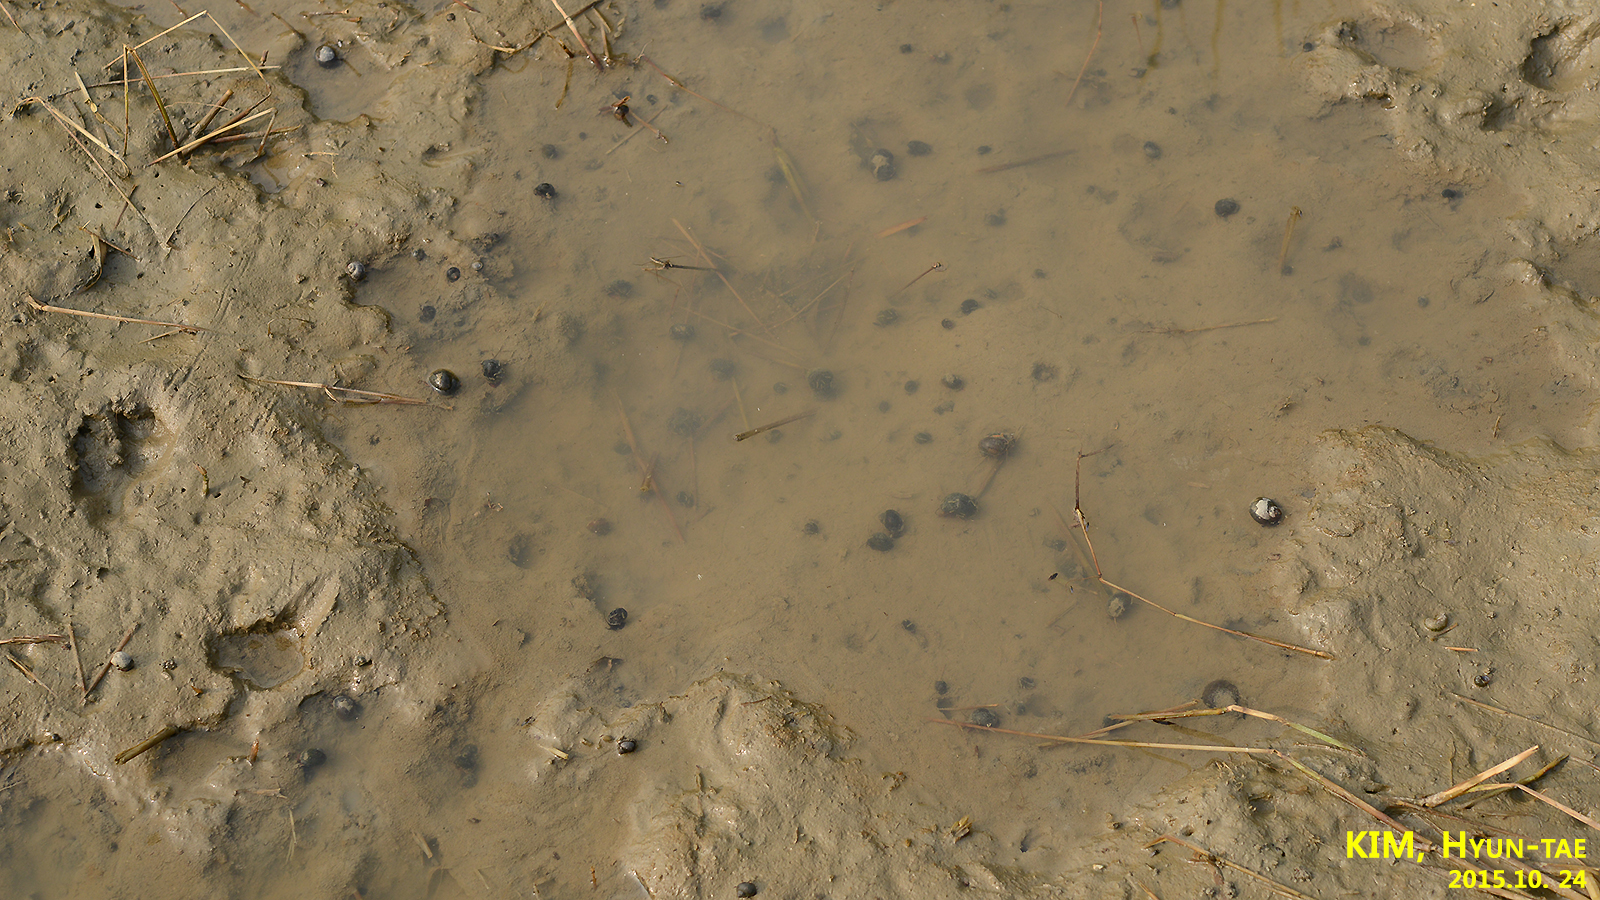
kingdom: Animalia
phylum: Mollusca
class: Gastropoda
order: Architaenioglossa
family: Ampullariidae
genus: Pomacea
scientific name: Pomacea canaliculata
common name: Channeled applesnail
